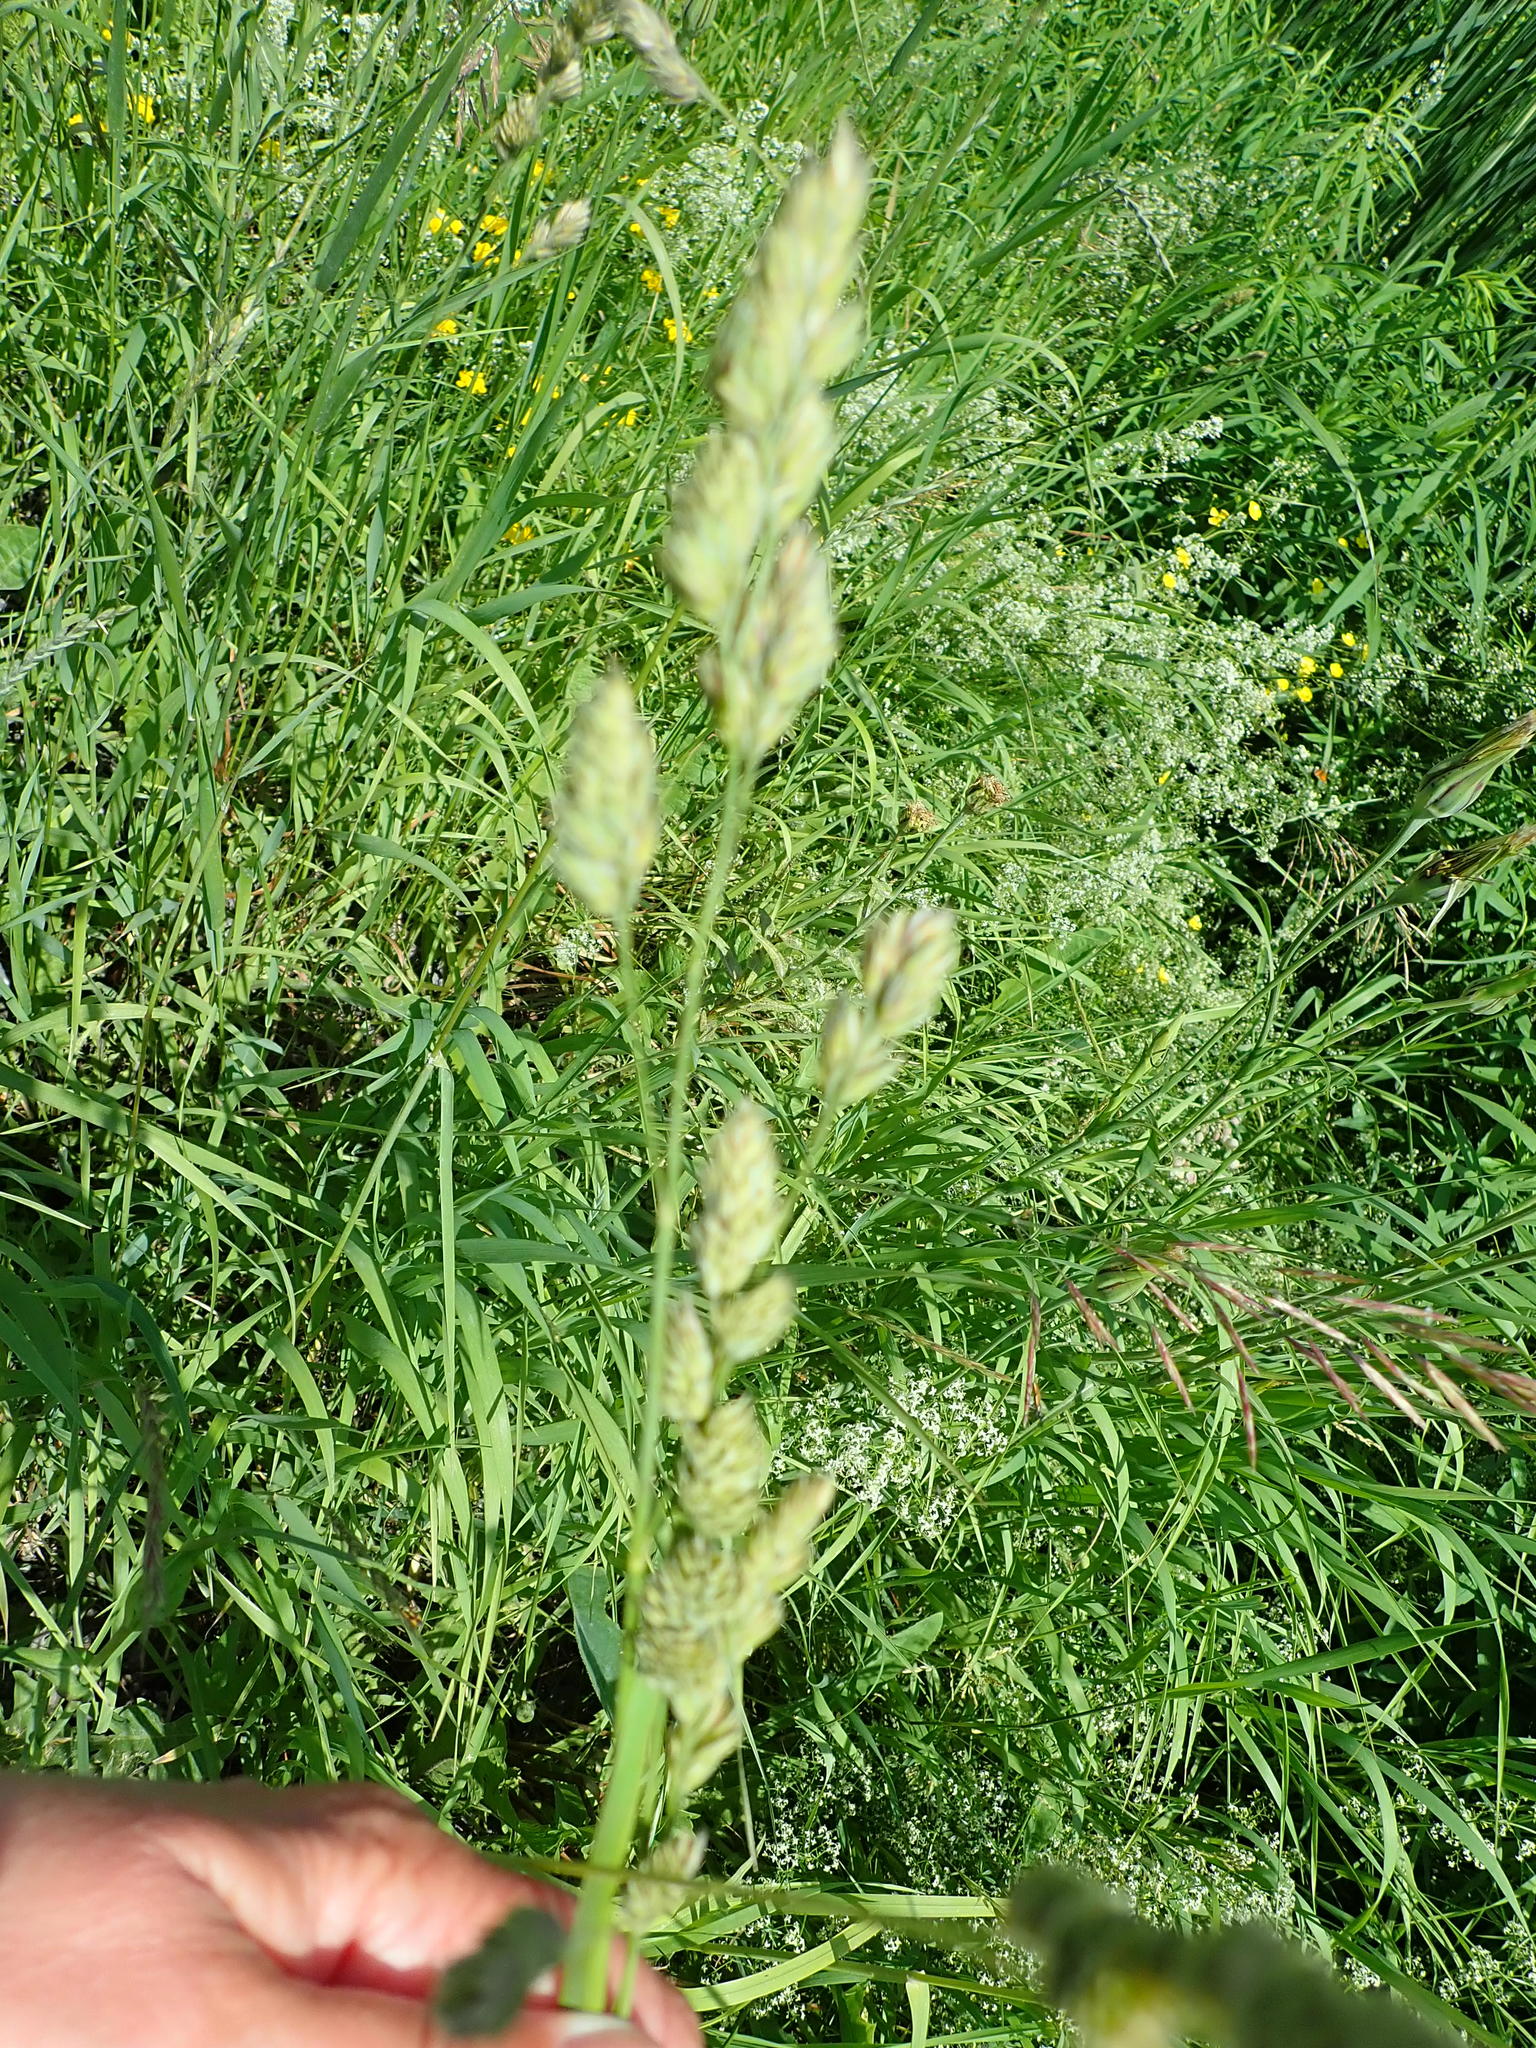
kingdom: Plantae
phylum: Tracheophyta
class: Liliopsida
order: Poales
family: Poaceae
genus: Dactylis
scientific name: Dactylis glomerata
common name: Orchardgrass
